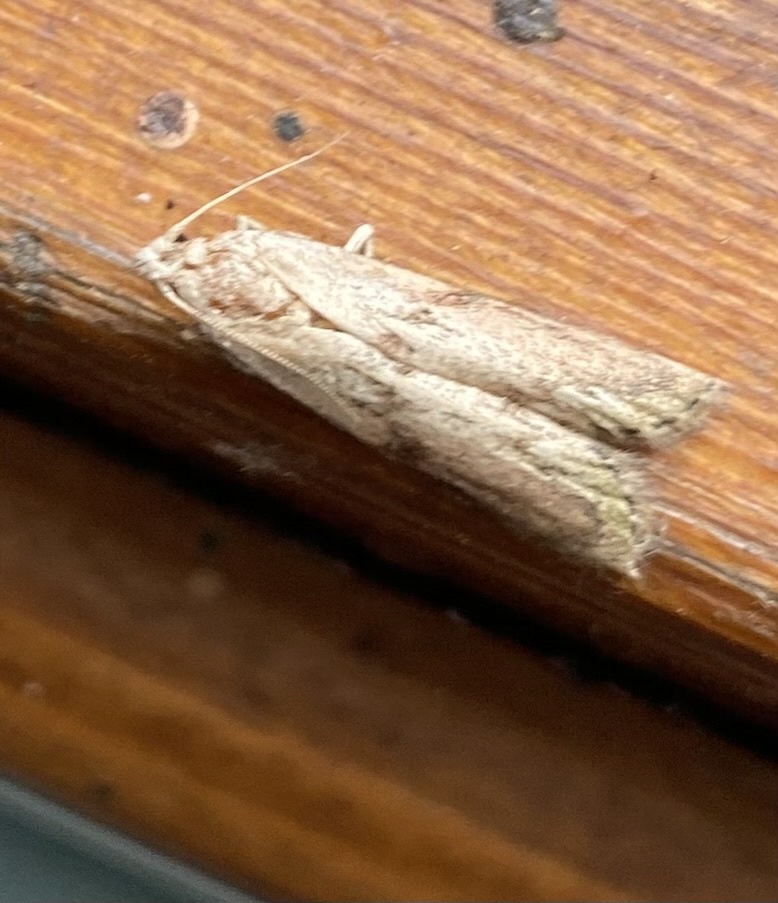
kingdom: Animalia
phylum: Arthropoda
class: Insecta
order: Lepidoptera
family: Pyralidae
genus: Aphomia
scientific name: Aphomia sociella
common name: Bee moth
